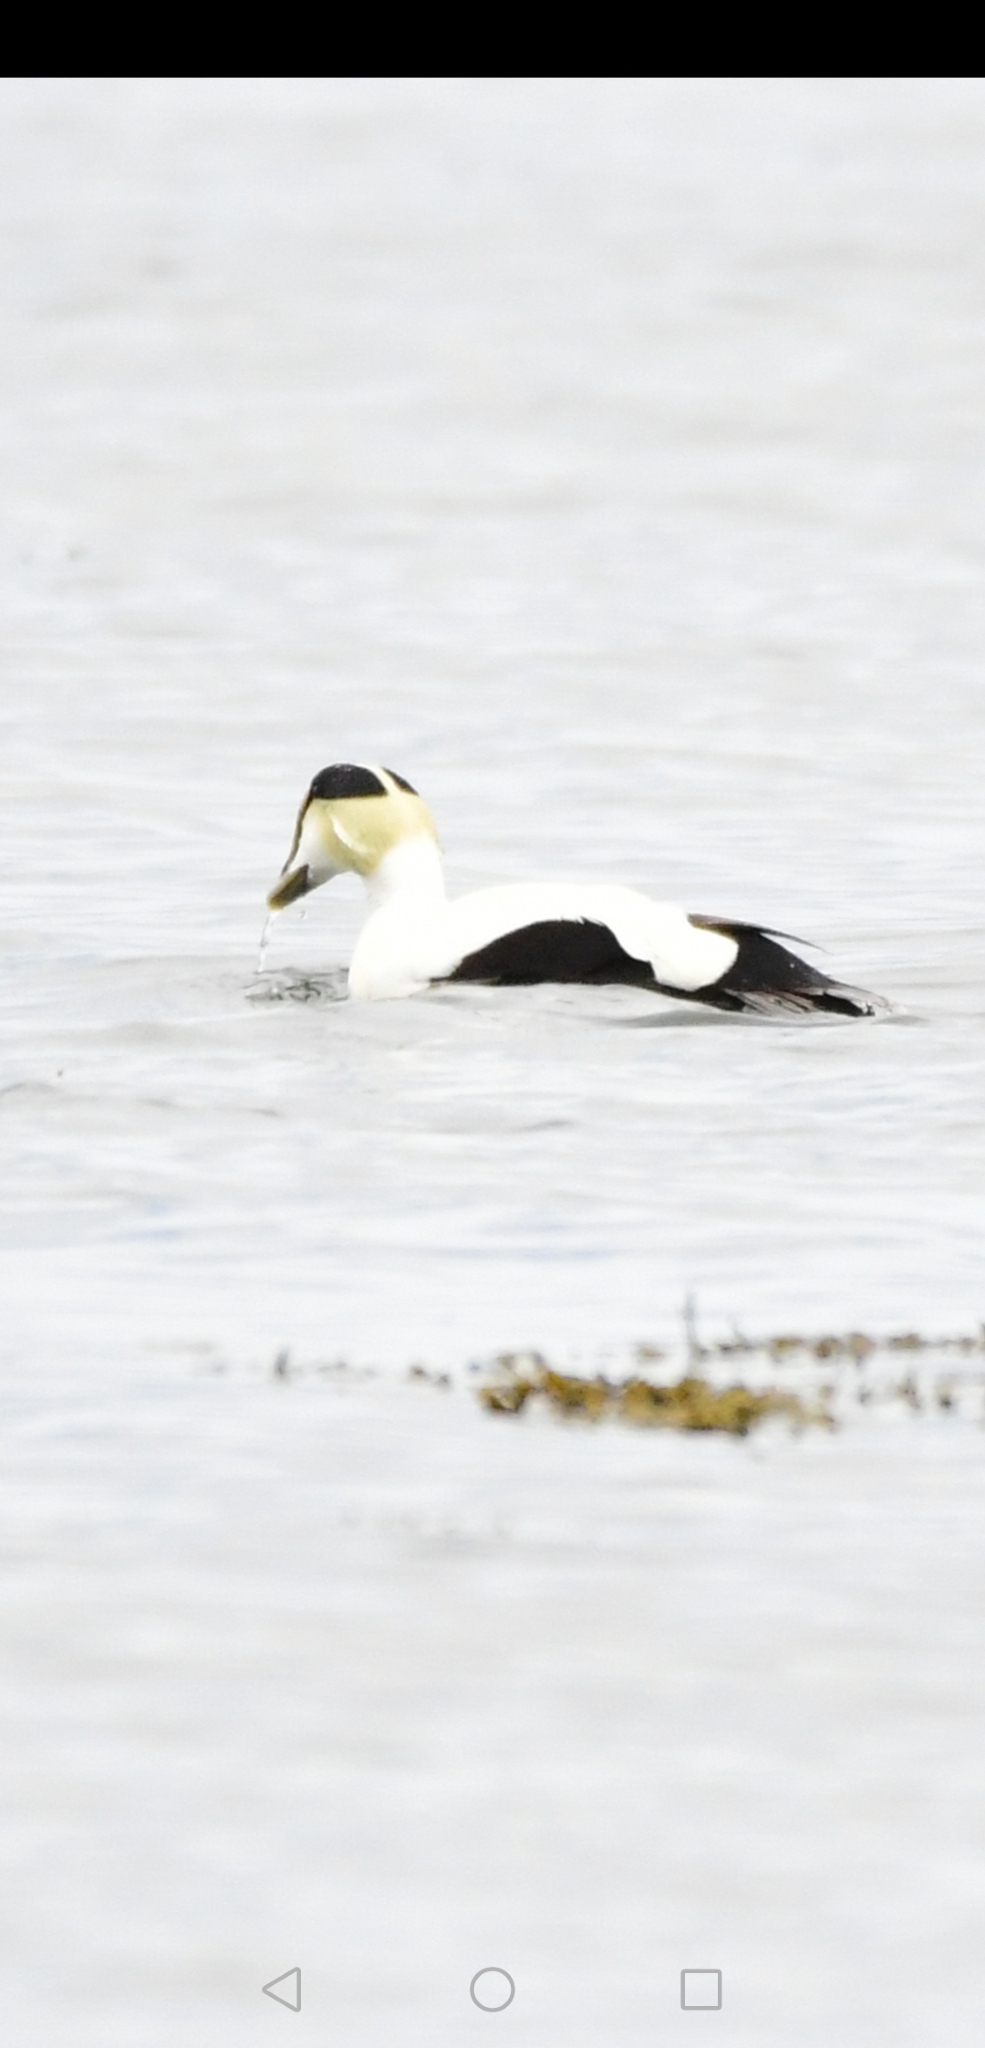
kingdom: Animalia
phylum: Chordata
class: Aves
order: Anseriformes
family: Anatidae
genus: Somateria
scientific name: Somateria mollissima
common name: Common eider
